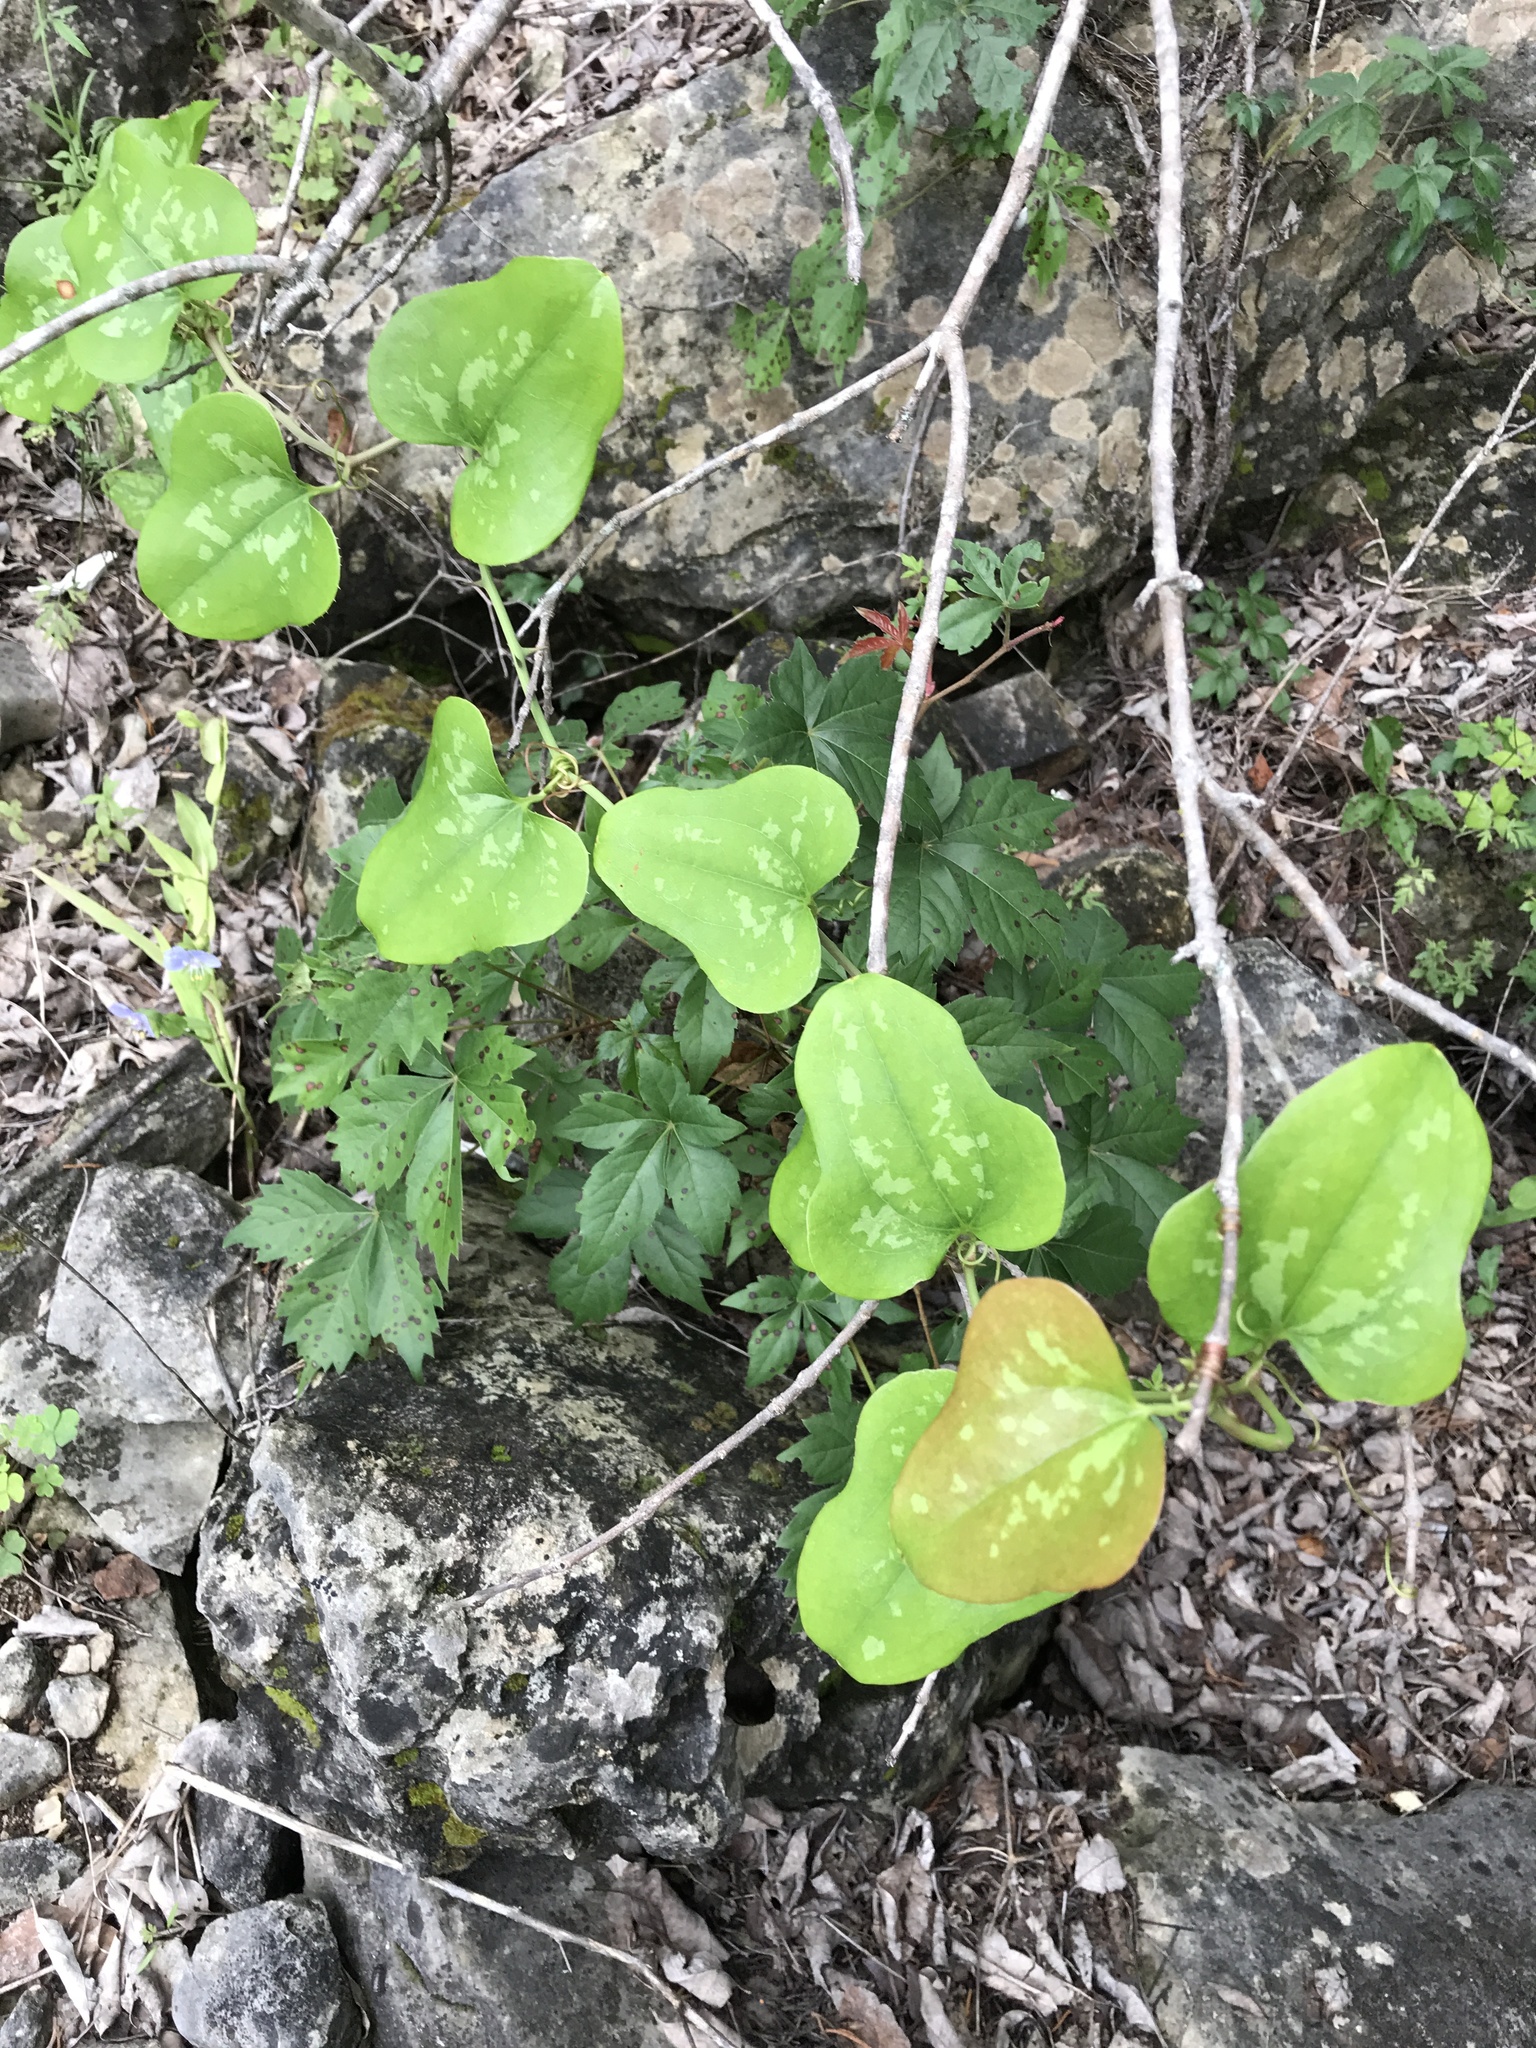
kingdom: Plantae
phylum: Tracheophyta
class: Liliopsida
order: Liliales
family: Smilacaceae
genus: Smilax
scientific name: Smilax bona-nox
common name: Catbrier
